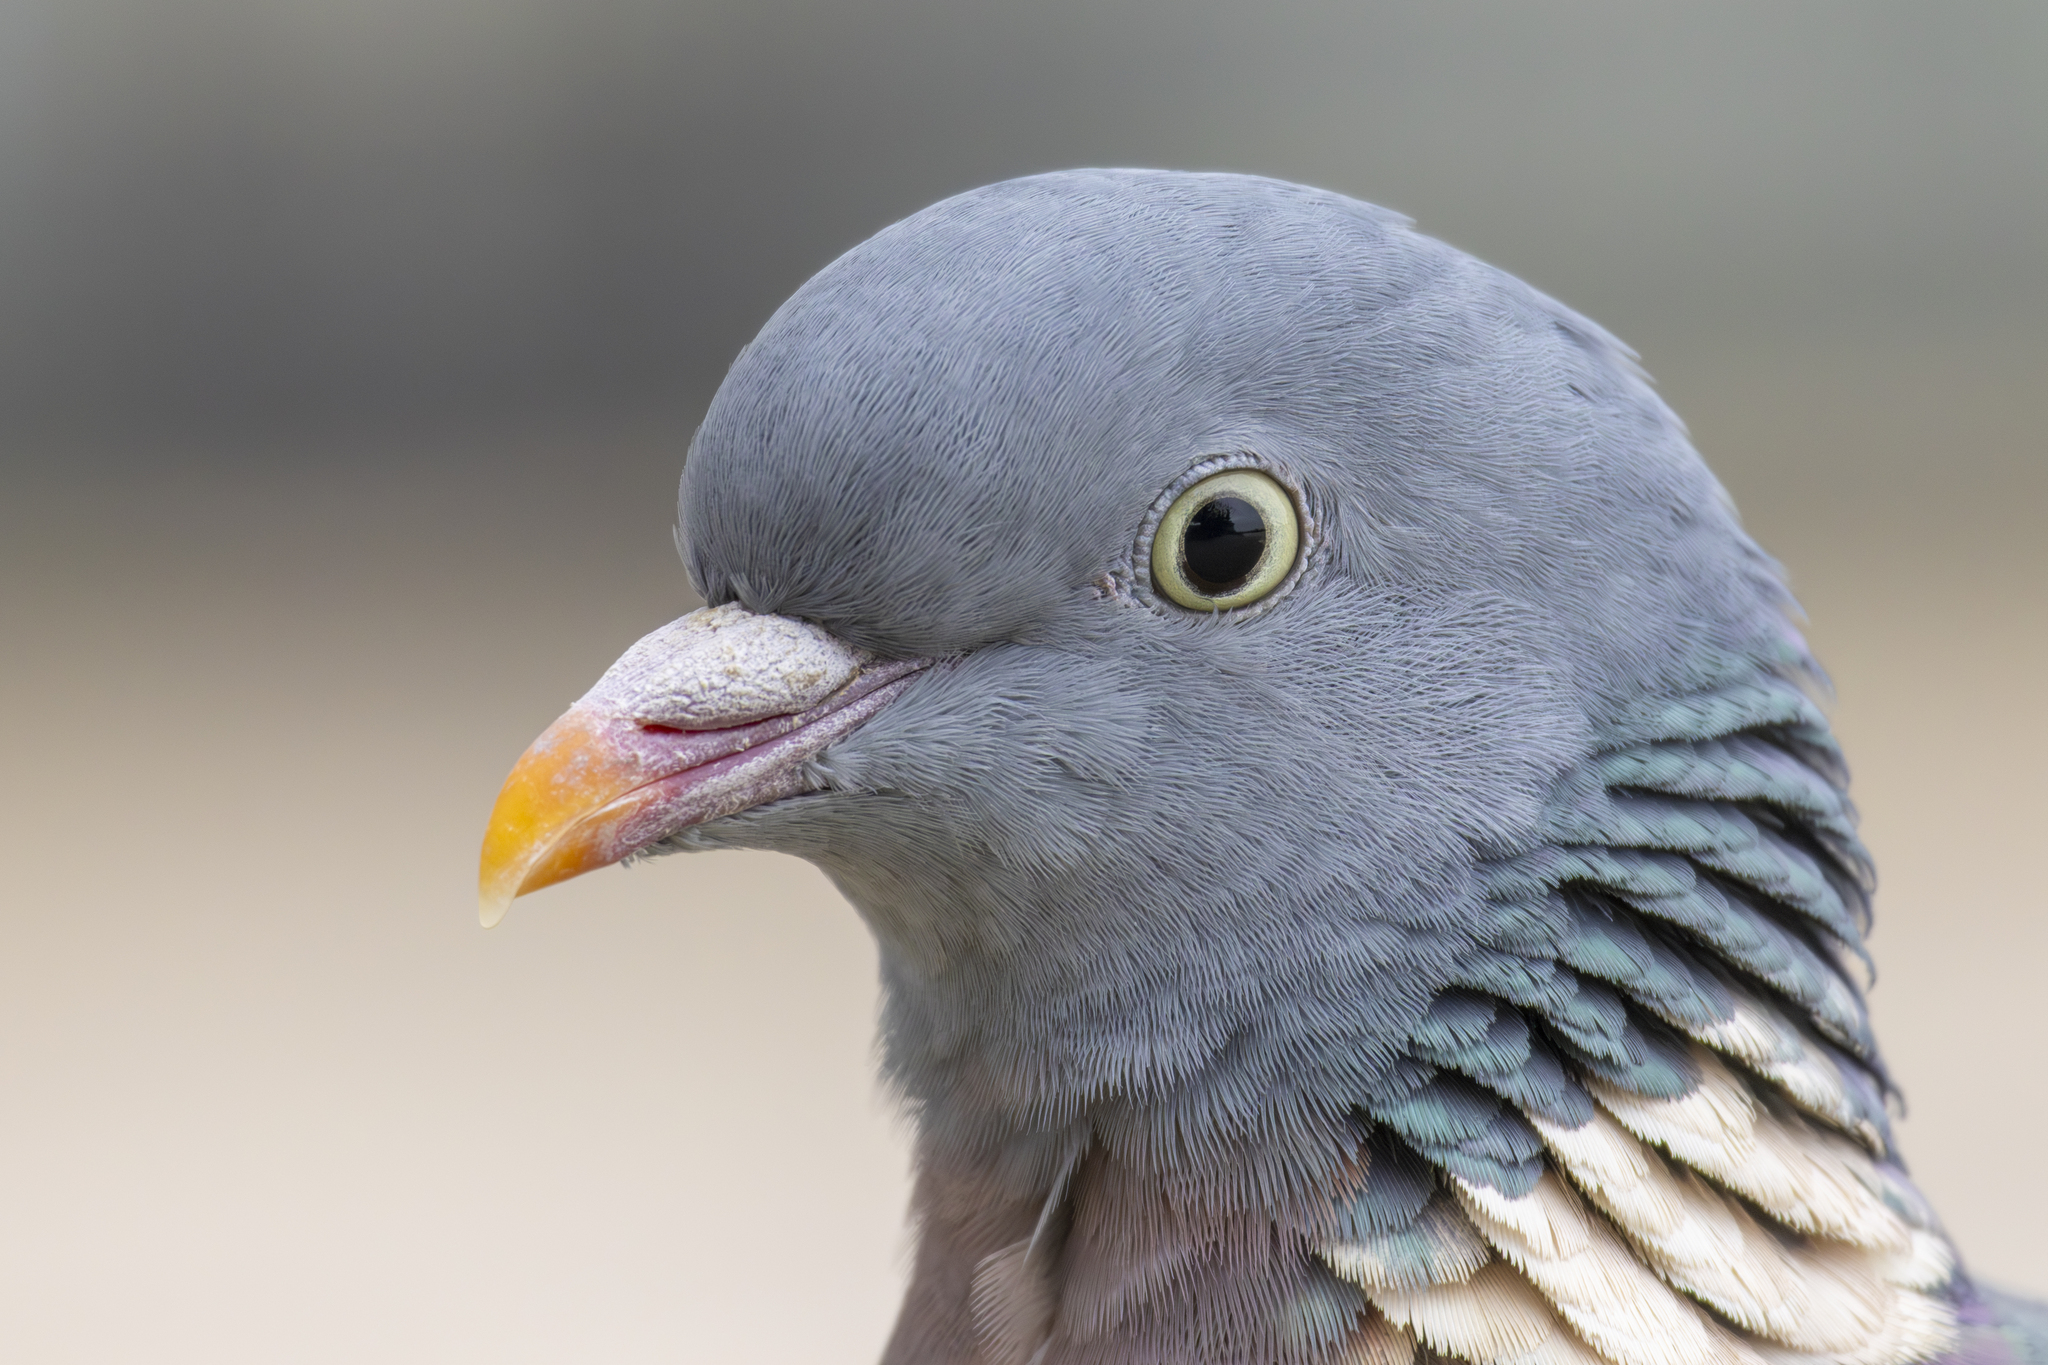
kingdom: Animalia
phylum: Chordata
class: Aves
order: Columbiformes
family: Columbidae
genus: Columba
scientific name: Columba palumbus
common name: Common wood pigeon
